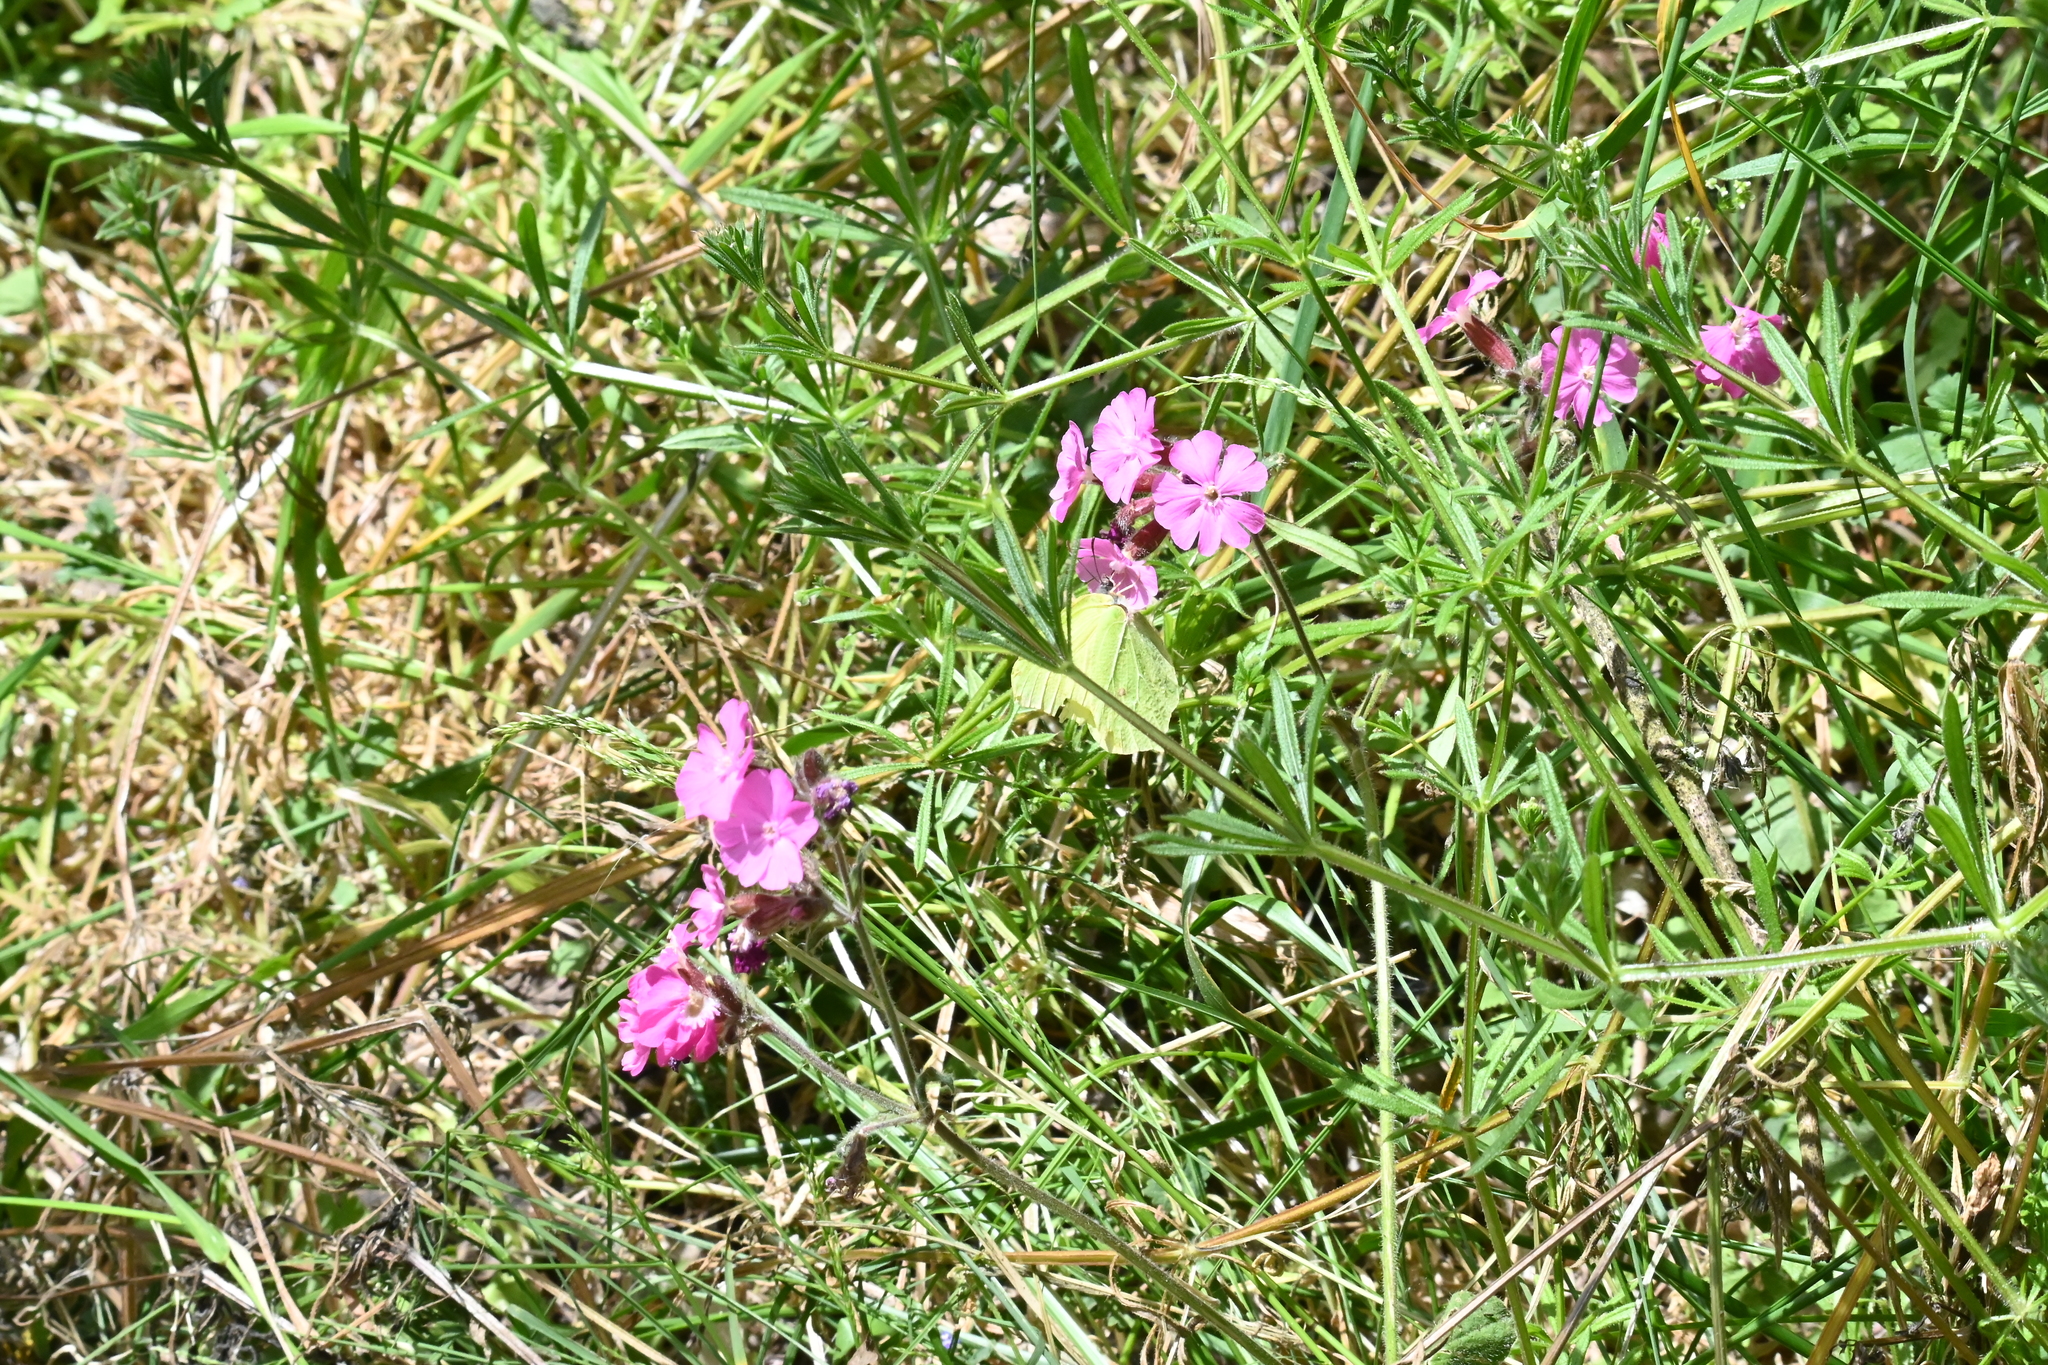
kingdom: Animalia
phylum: Arthropoda
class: Insecta
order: Lepidoptera
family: Pieridae
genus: Gonepteryx
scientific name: Gonepteryx rhamni
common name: Brimstone
